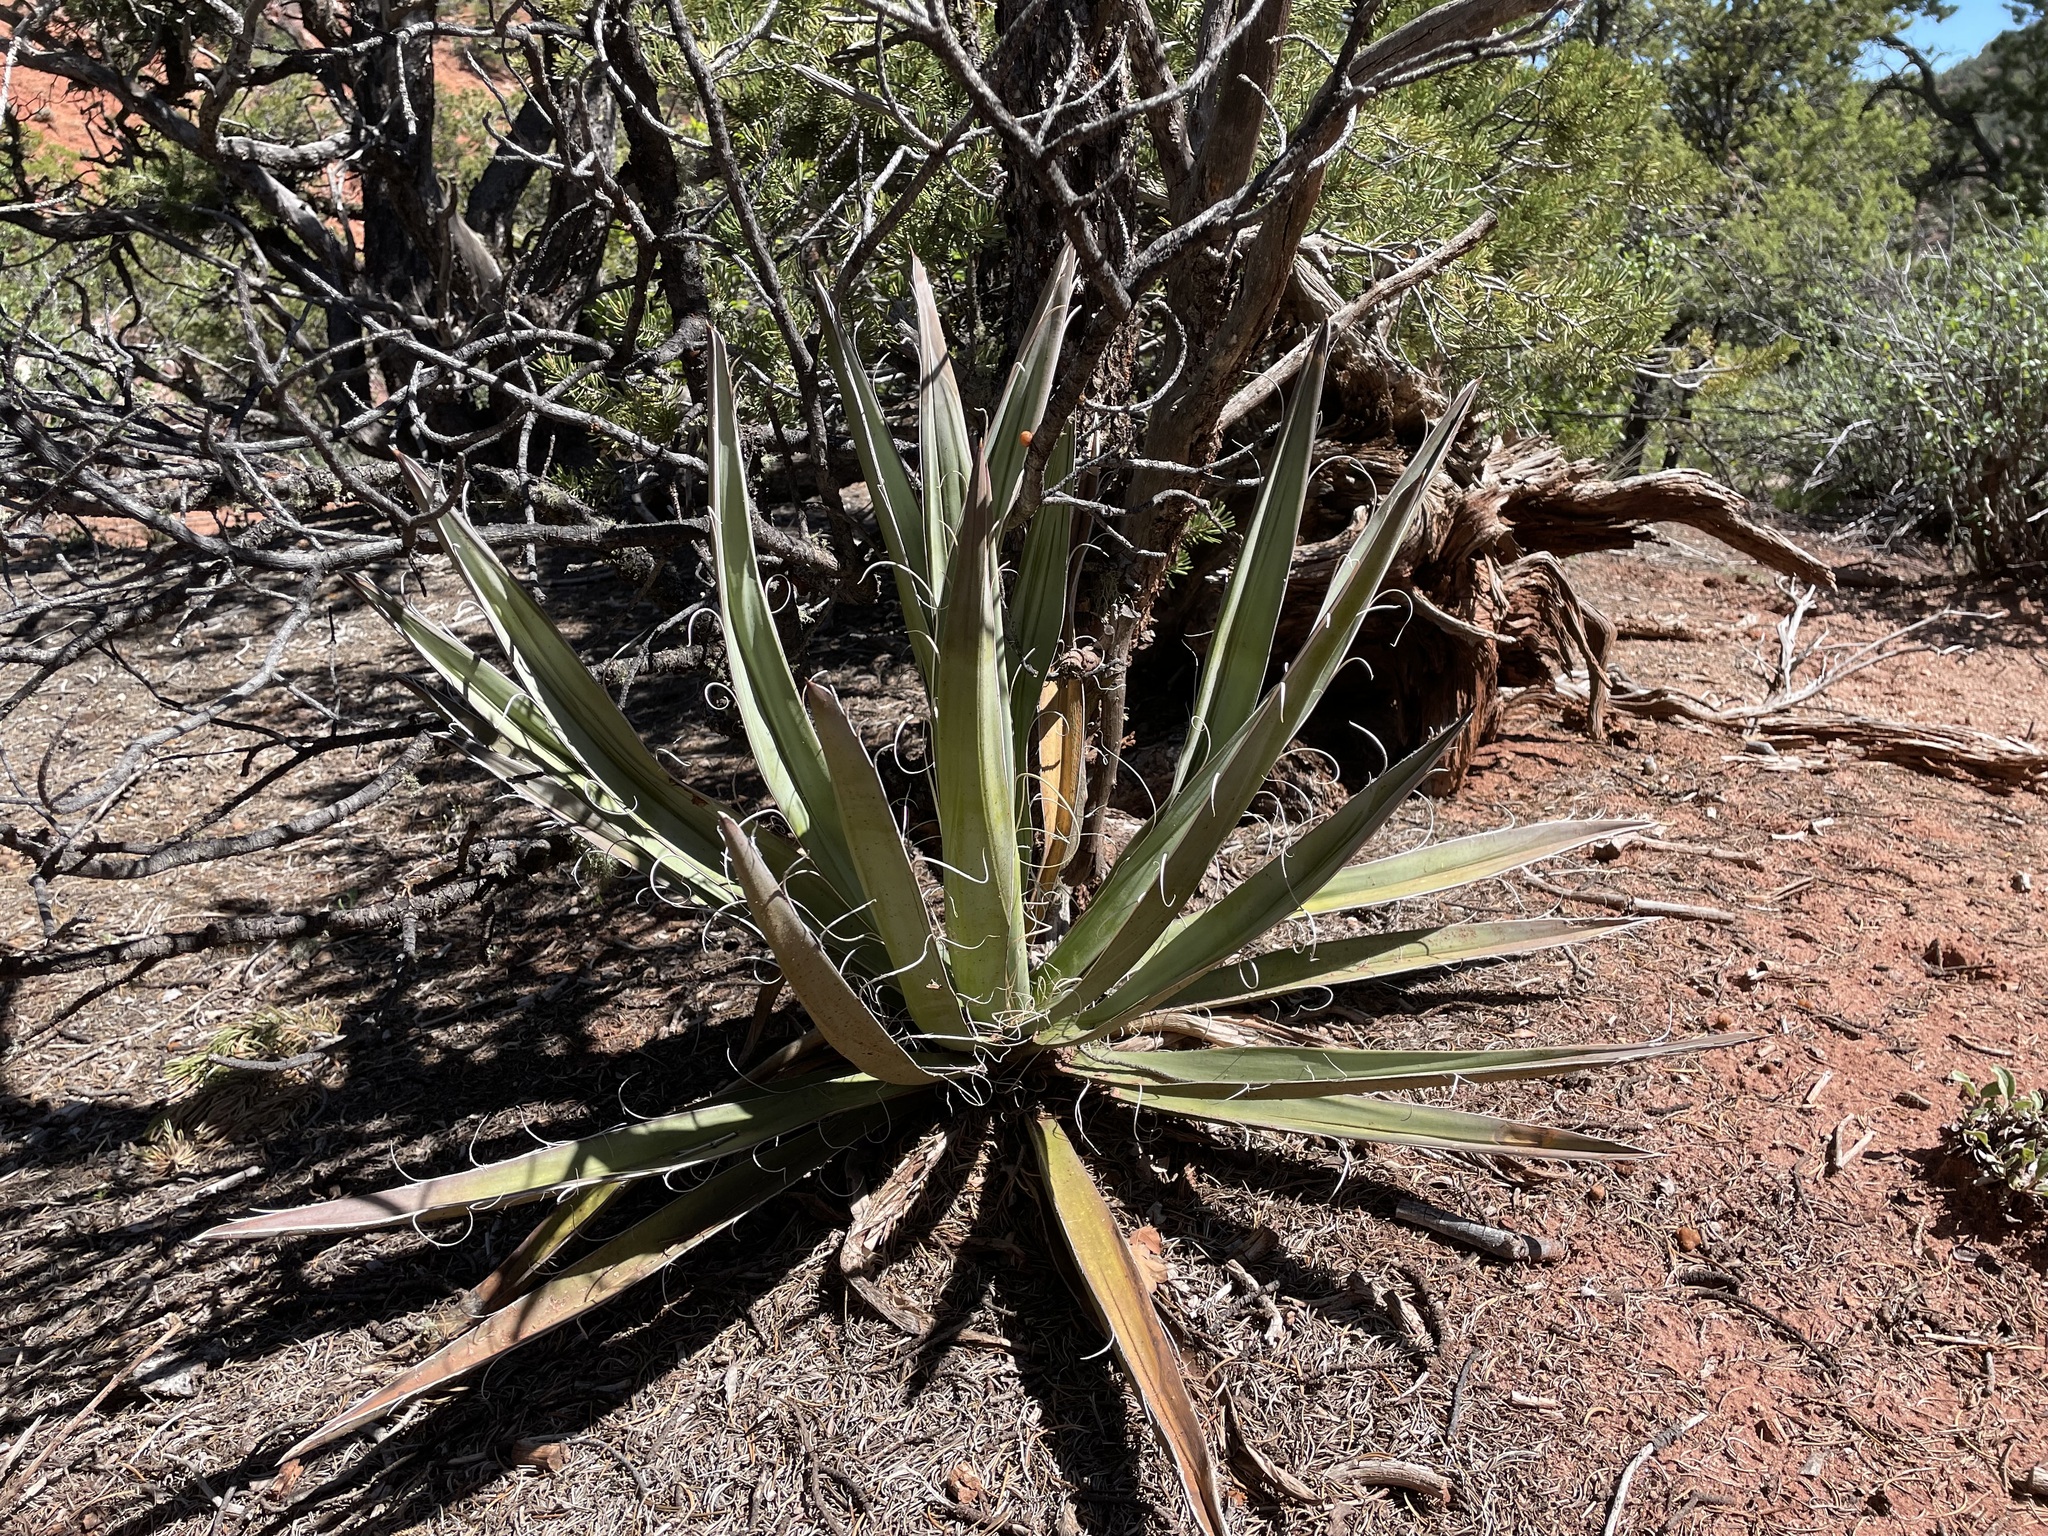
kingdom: Plantae
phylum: Tracheophyta
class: Liliopsida
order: Asparagales
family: Asparagaceae
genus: Yucca
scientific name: Yucca baccata
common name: Banana yucca
